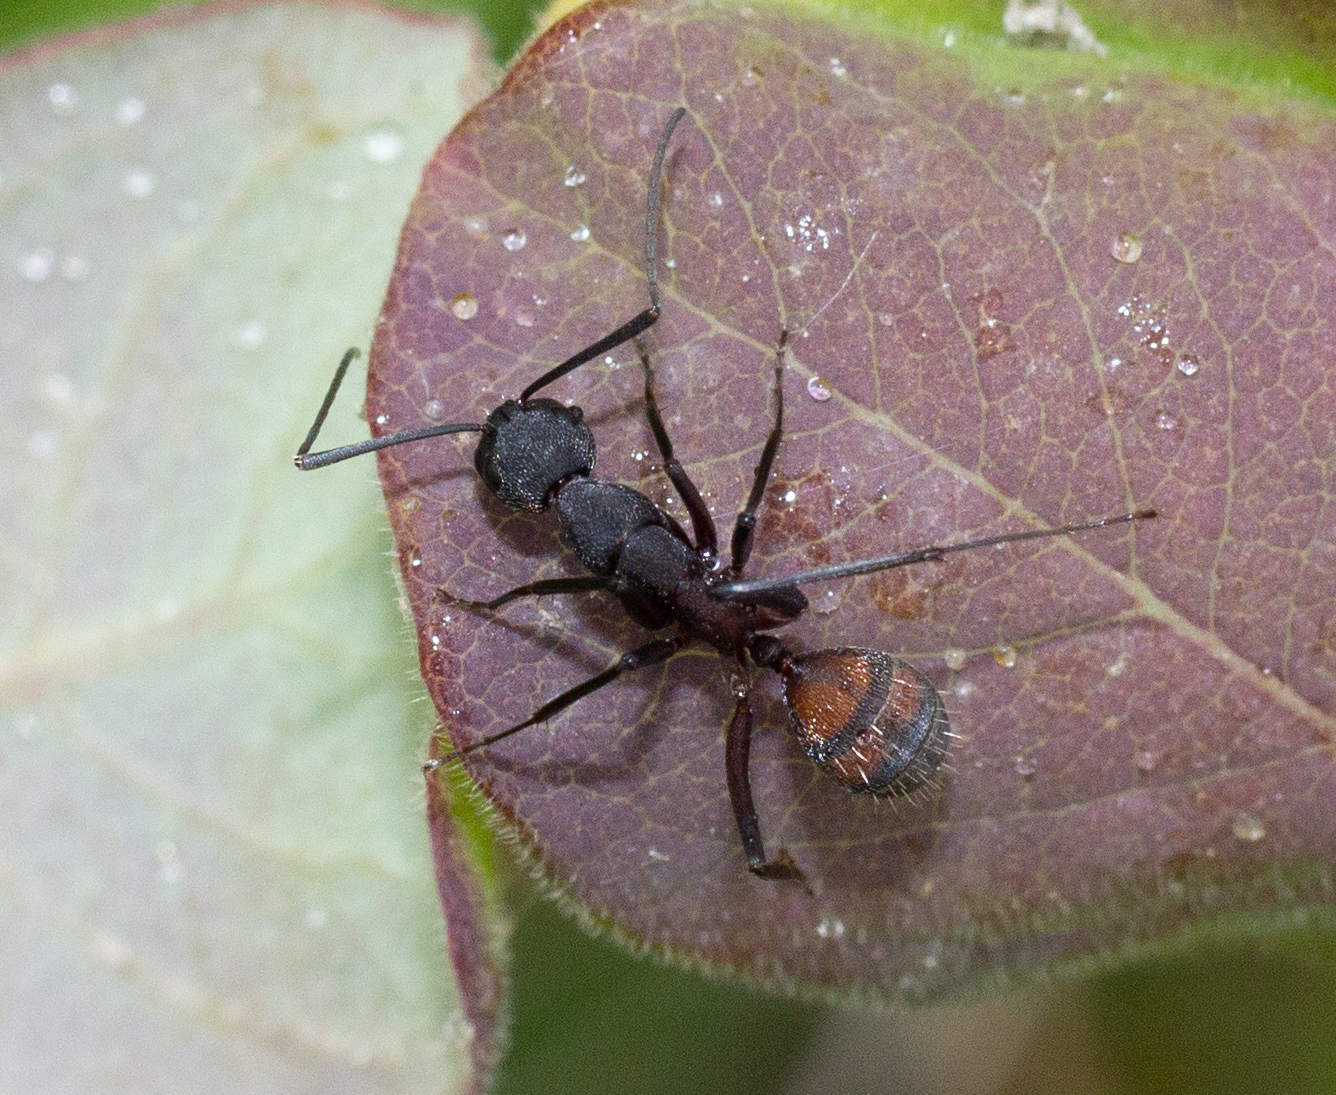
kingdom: Animalia
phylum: Arthropoda
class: Insecta
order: Hymenoptera
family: Formicidae
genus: Camponotus
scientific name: Camponotus cruentatus
